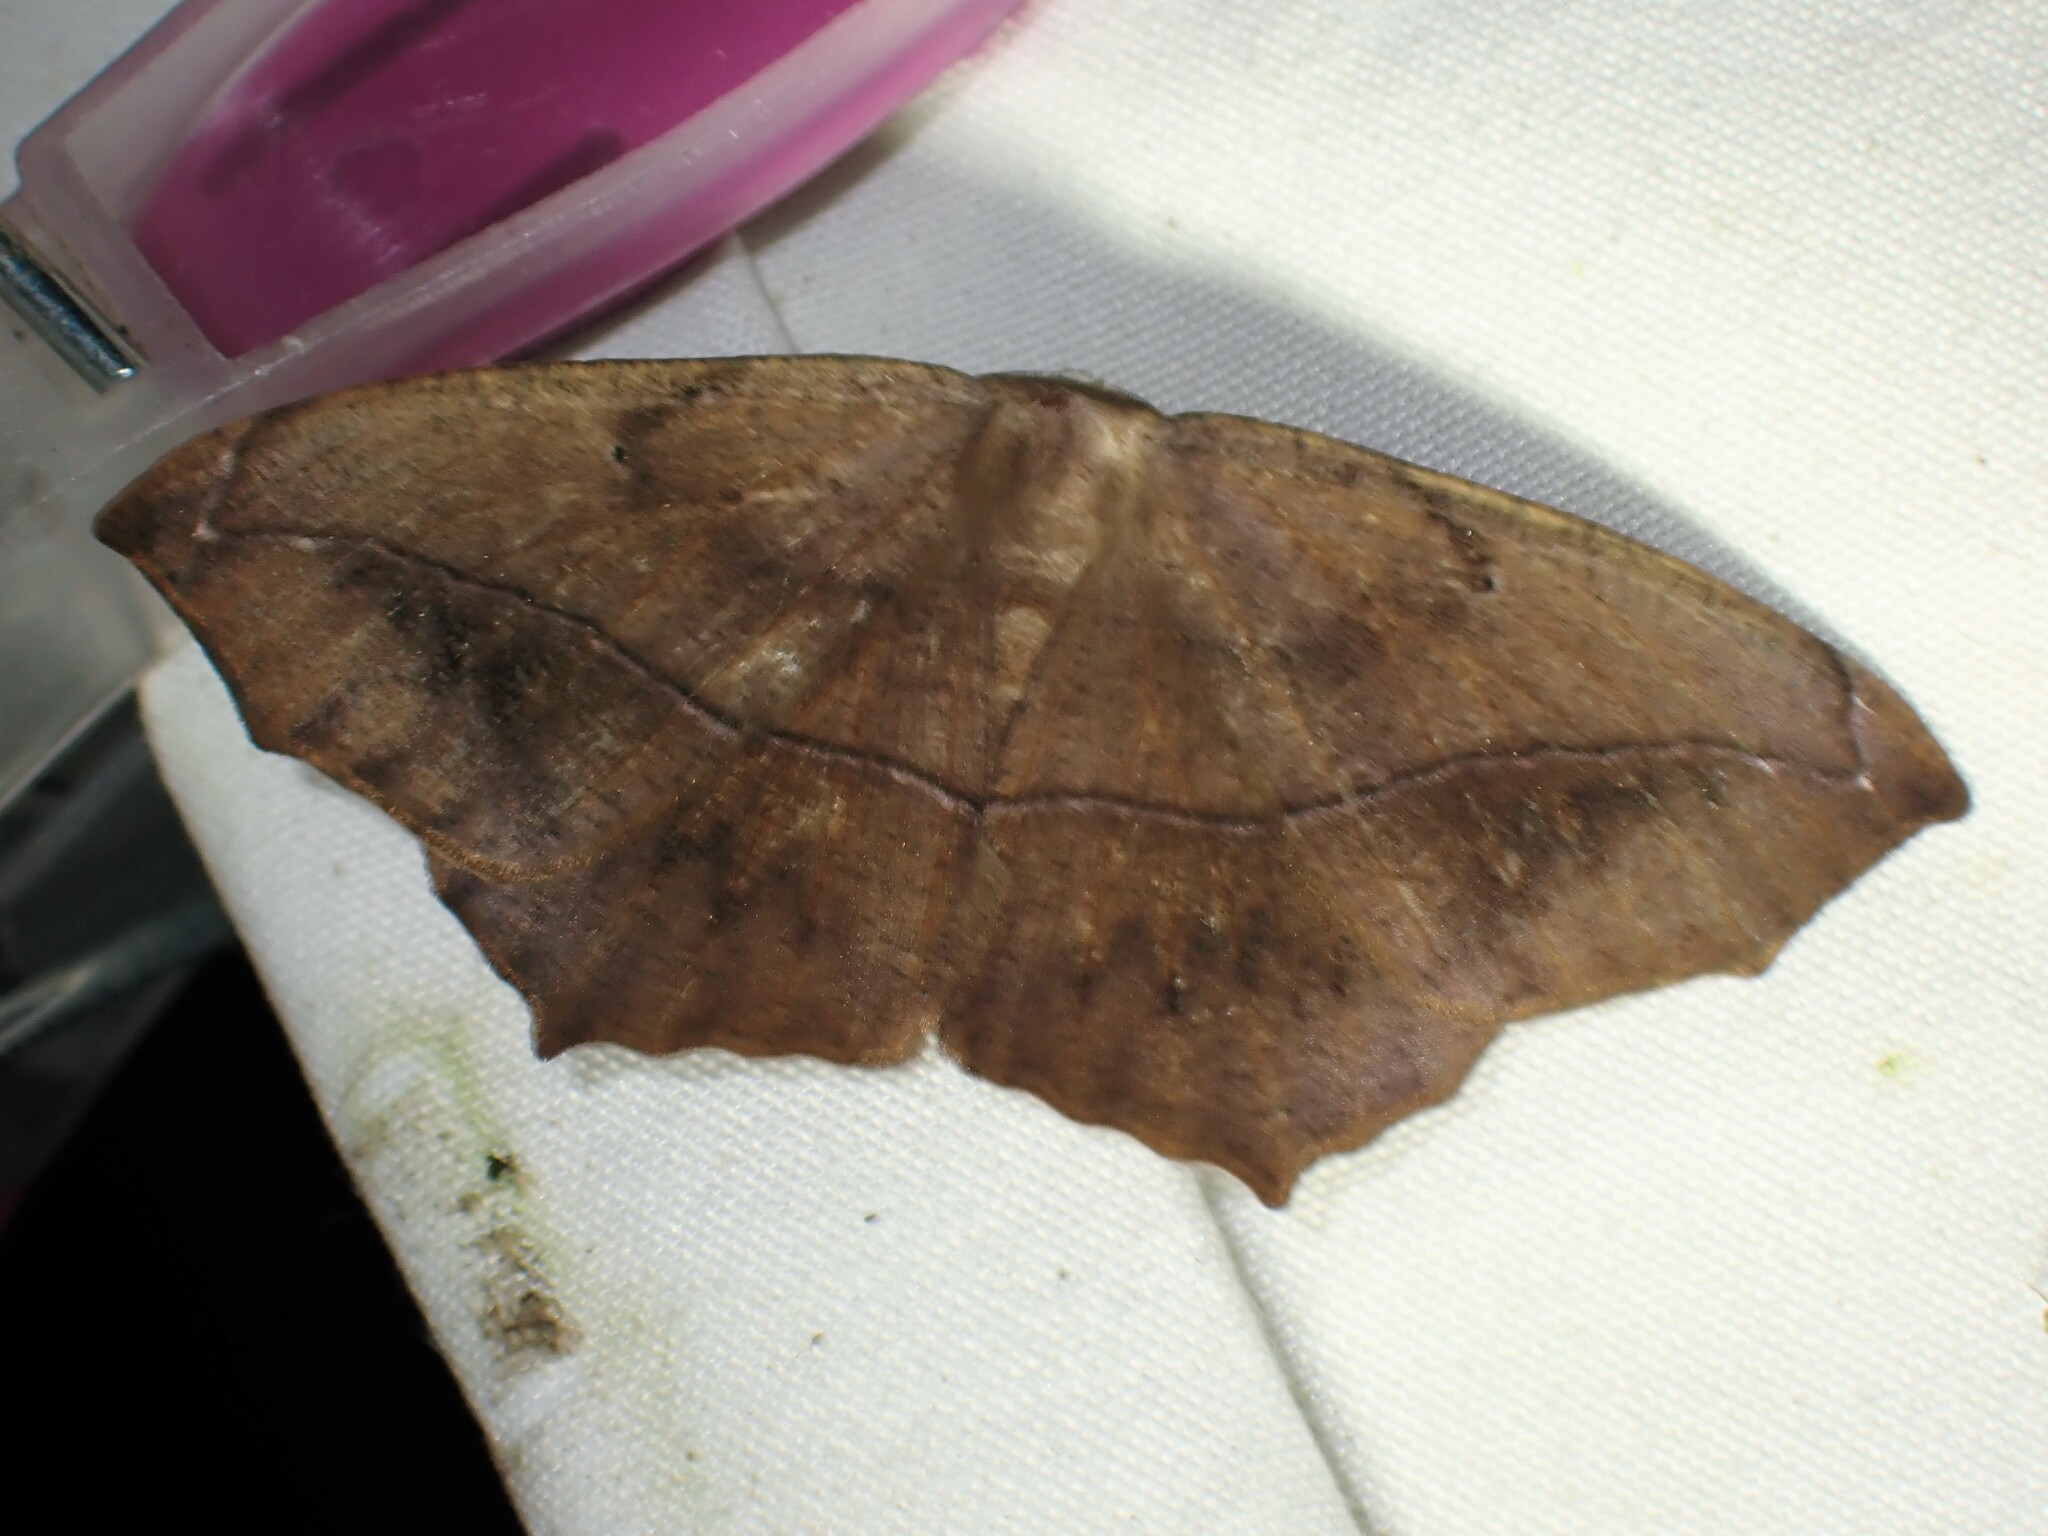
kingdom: Animalia
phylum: Arthropoda
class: Insecta
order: Lepidoptera
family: Geometridae
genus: Prochoerodes
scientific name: Prochoerodes lineola
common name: Large maple spanworm
